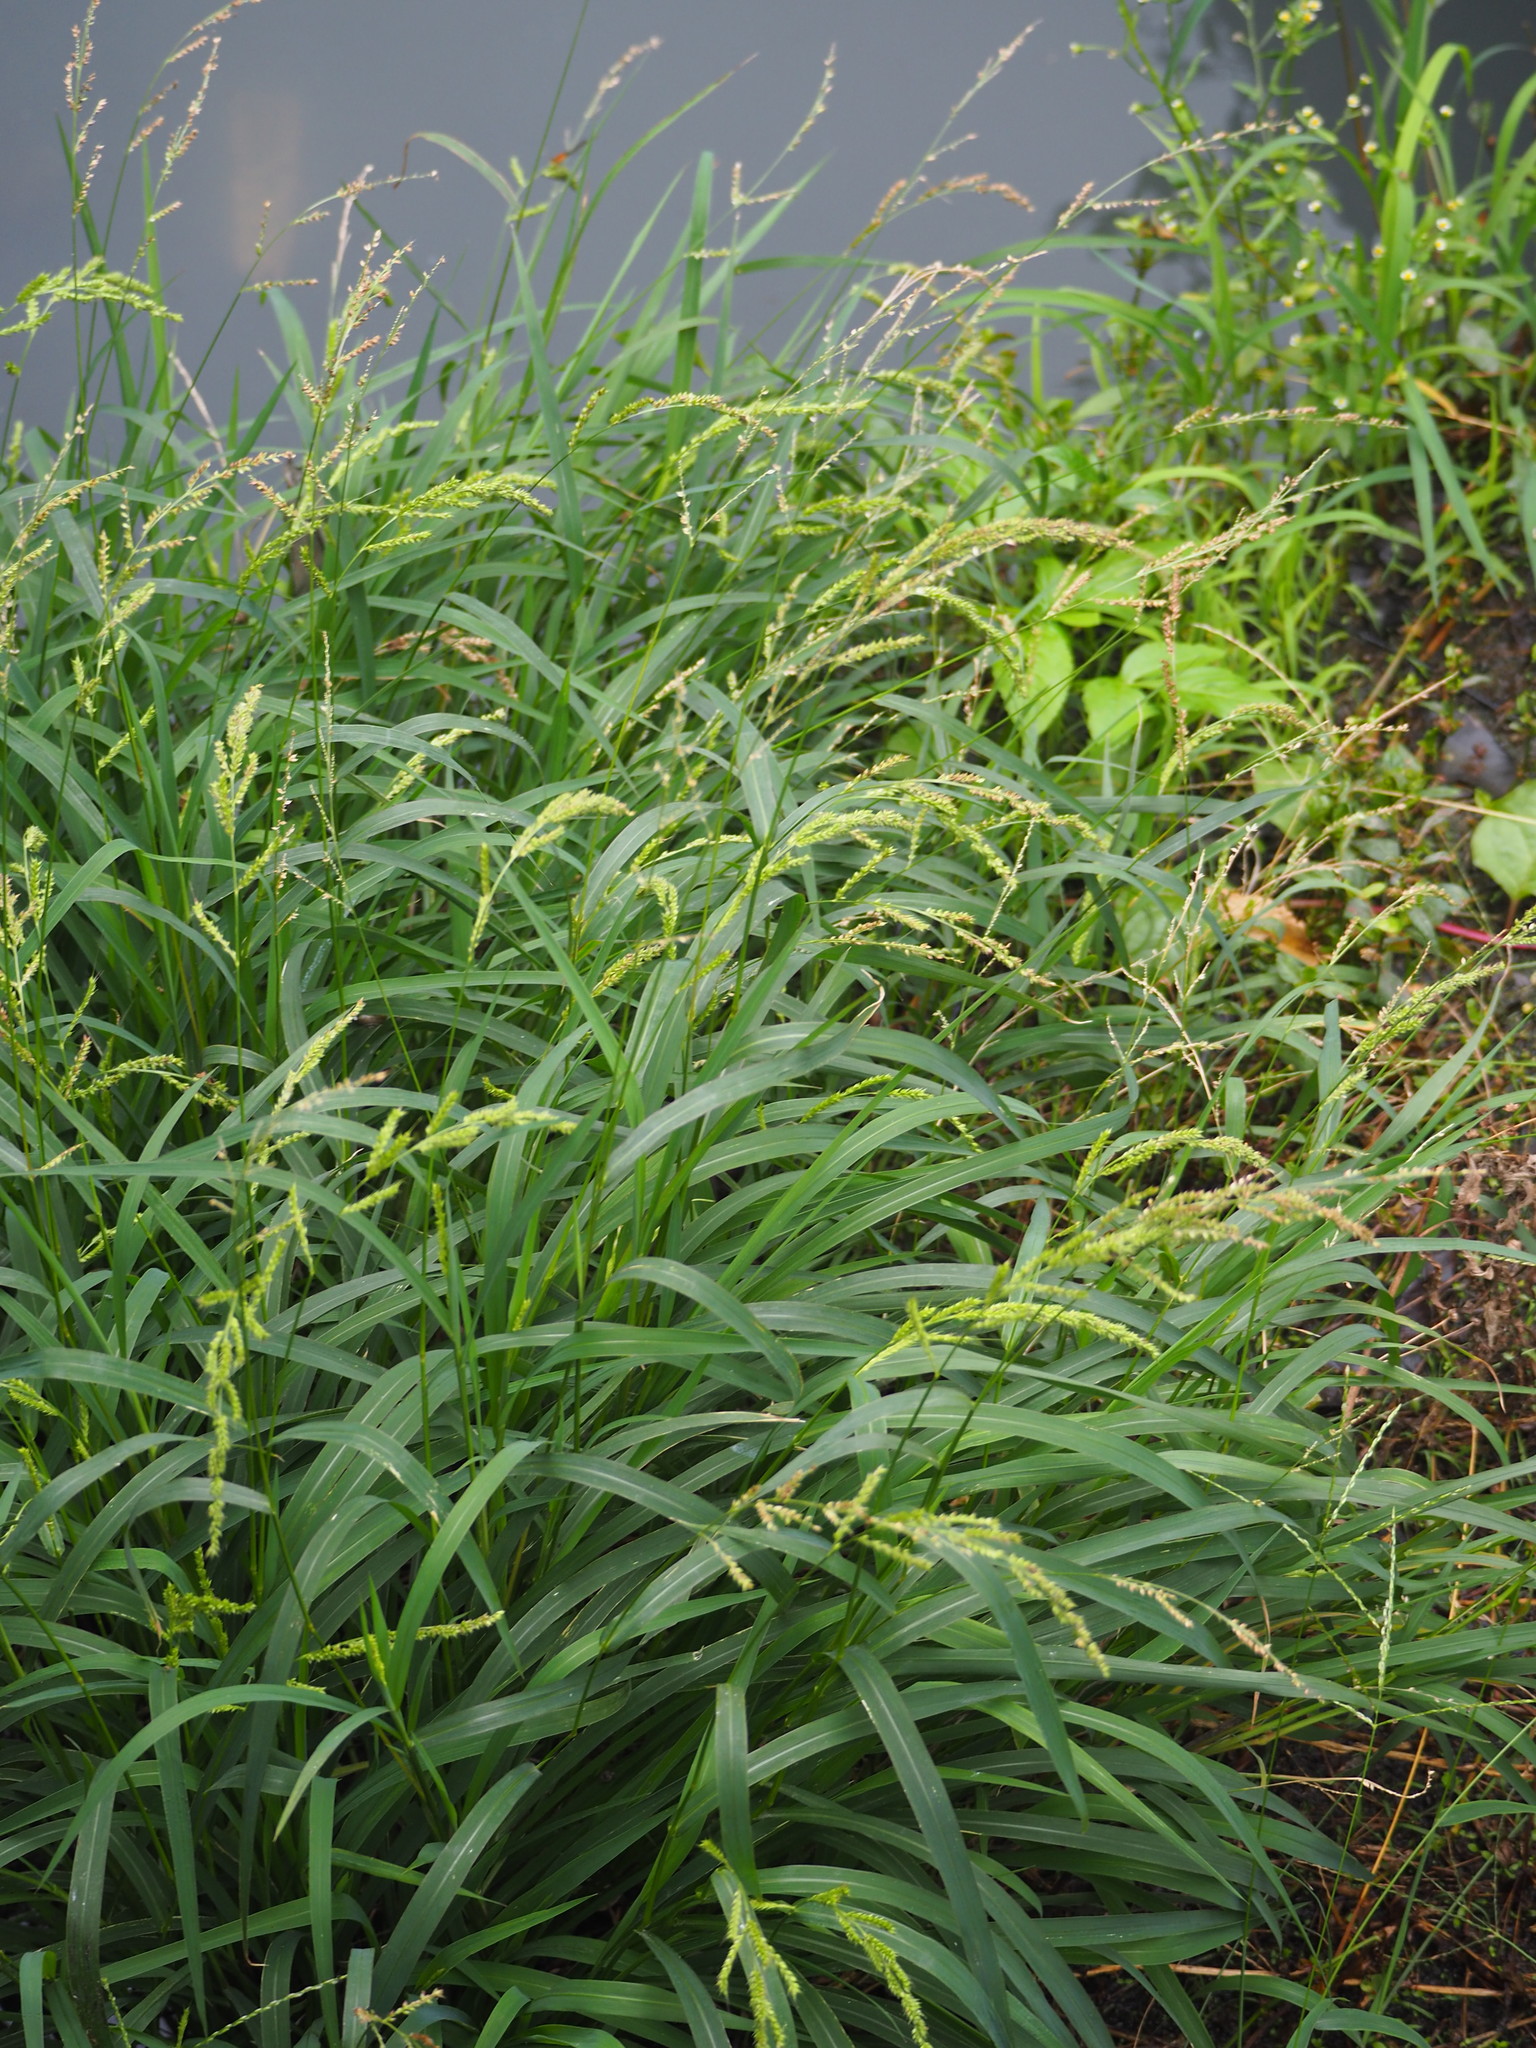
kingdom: Plantae
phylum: Tracheophyta
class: Liliopsida
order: Poales
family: Poaceae
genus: Echinochloa
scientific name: Echinochloa crus-galli
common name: Cockspur
